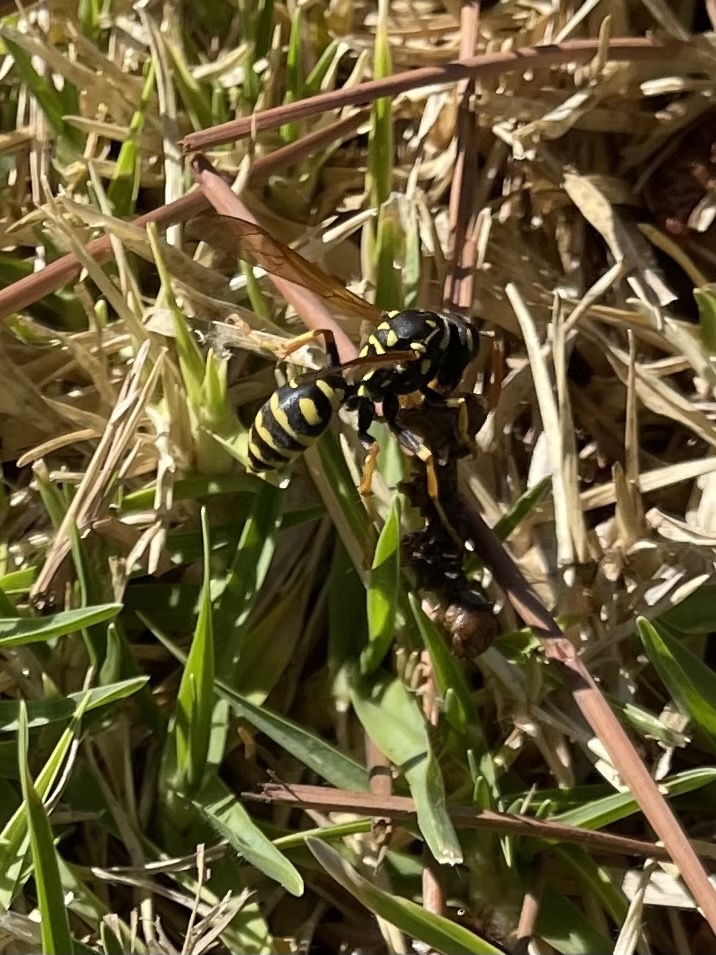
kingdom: Animalia
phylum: Arthropoda
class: Insecta
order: Hymenoptera
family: Eumenidae
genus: Polistes
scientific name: Polistes dominula
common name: Paper wasp
